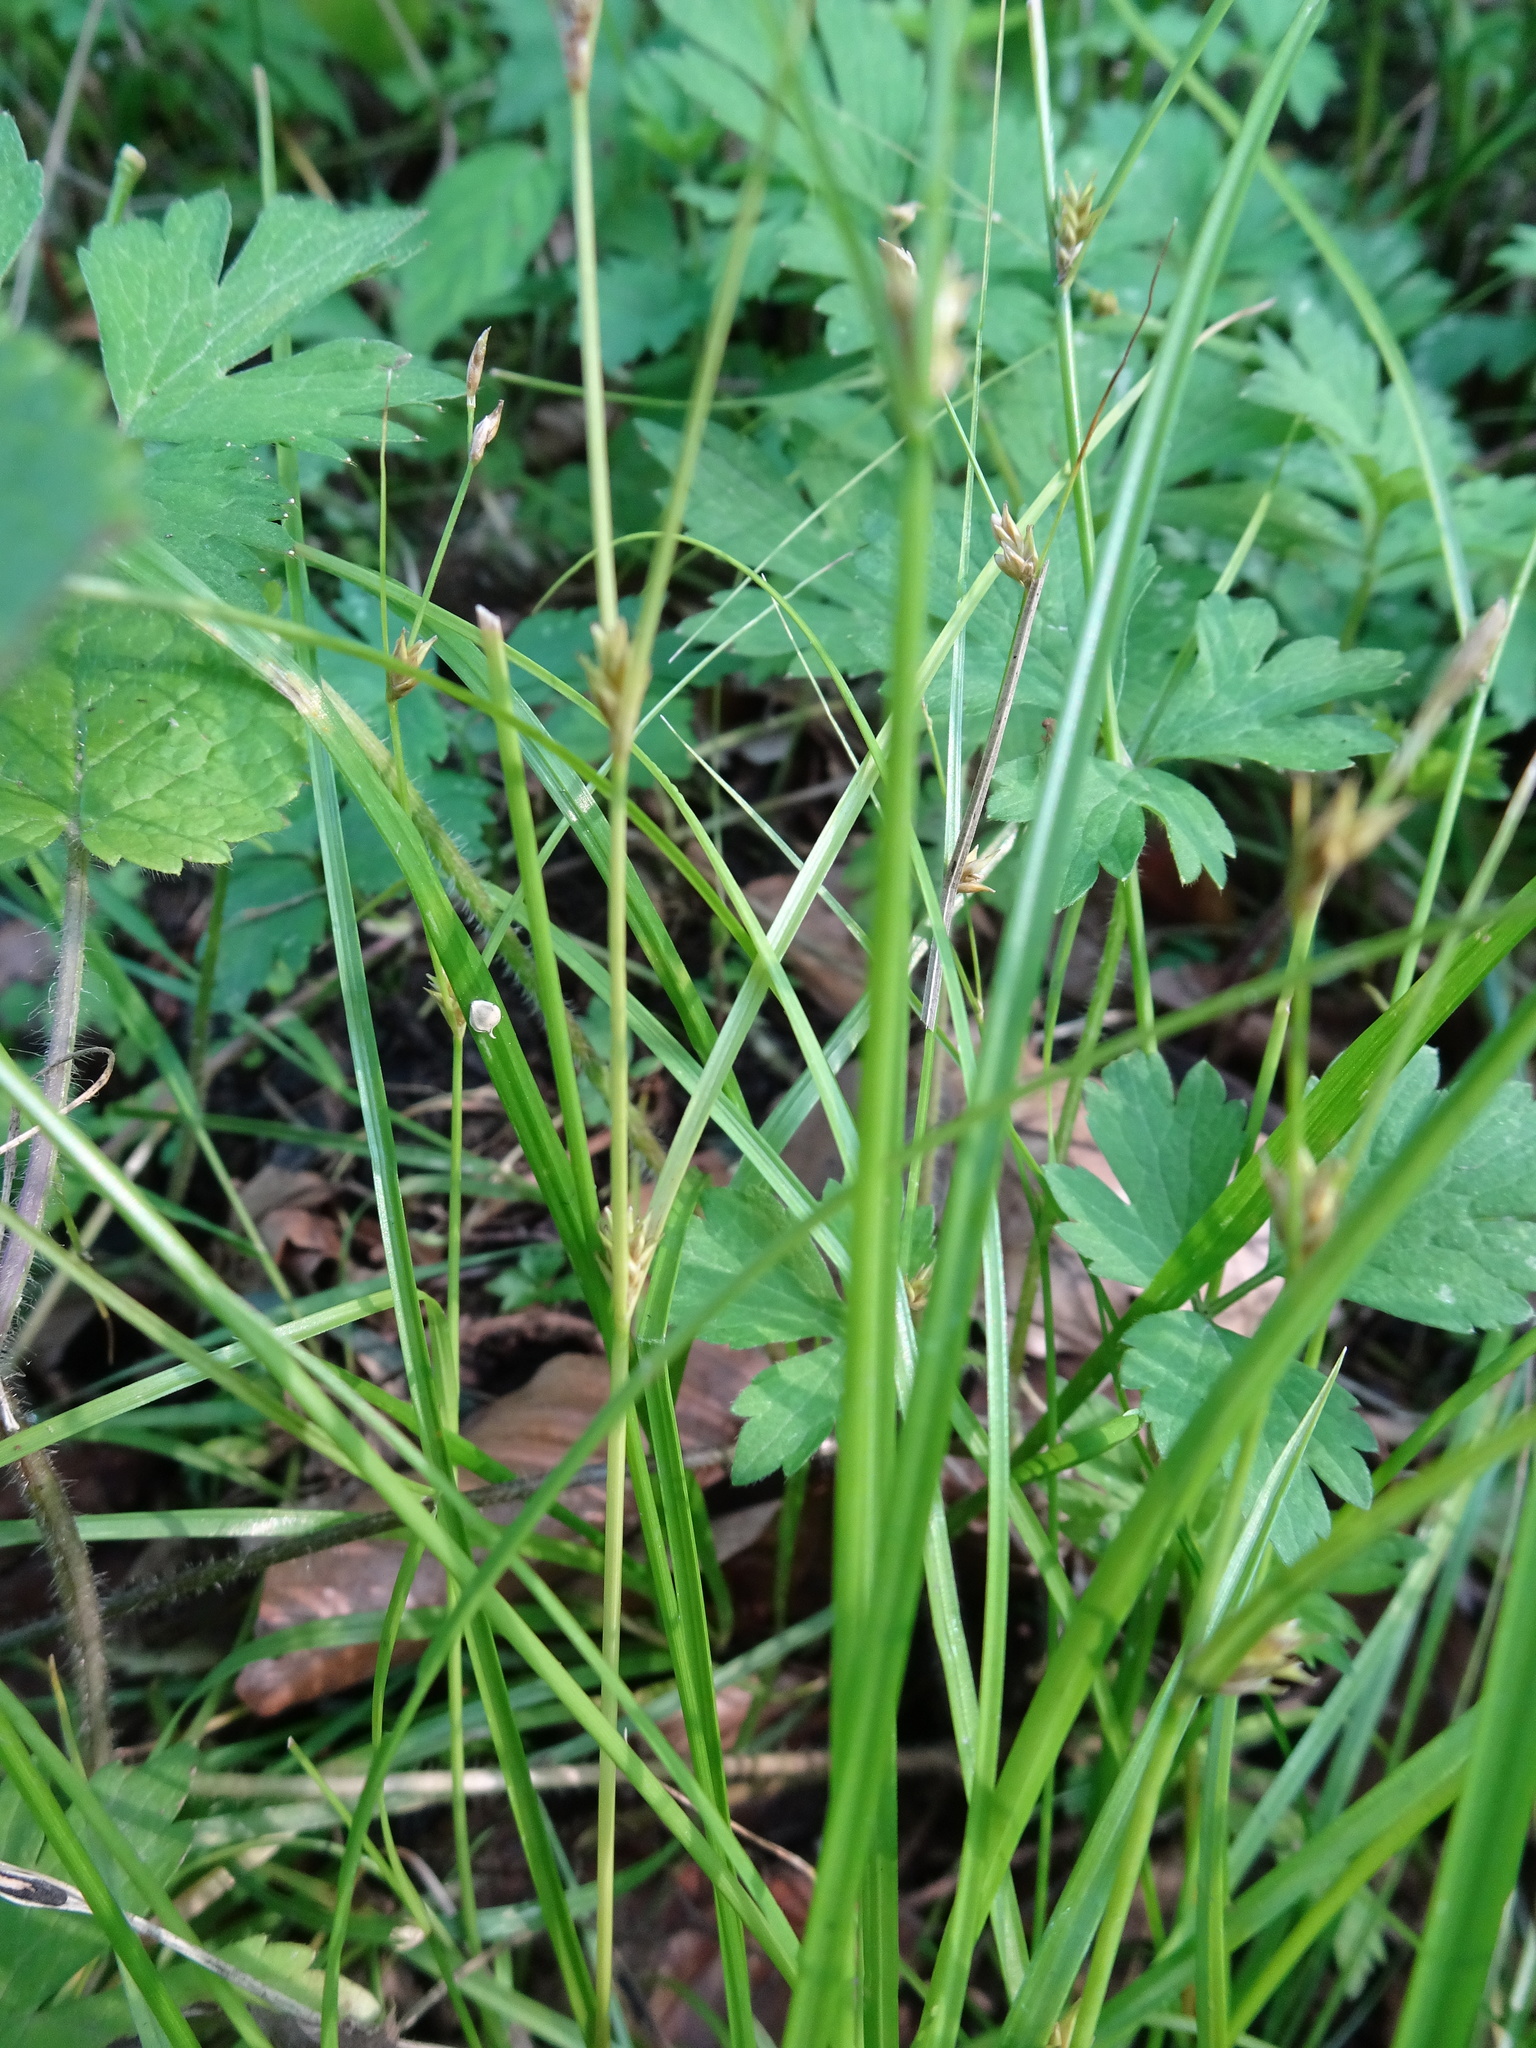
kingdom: Plantae
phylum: Tracheophyta
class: Liliopsida
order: Poales
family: Cyperaceae
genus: Carex
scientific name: Carex remota
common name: Remote sedge
